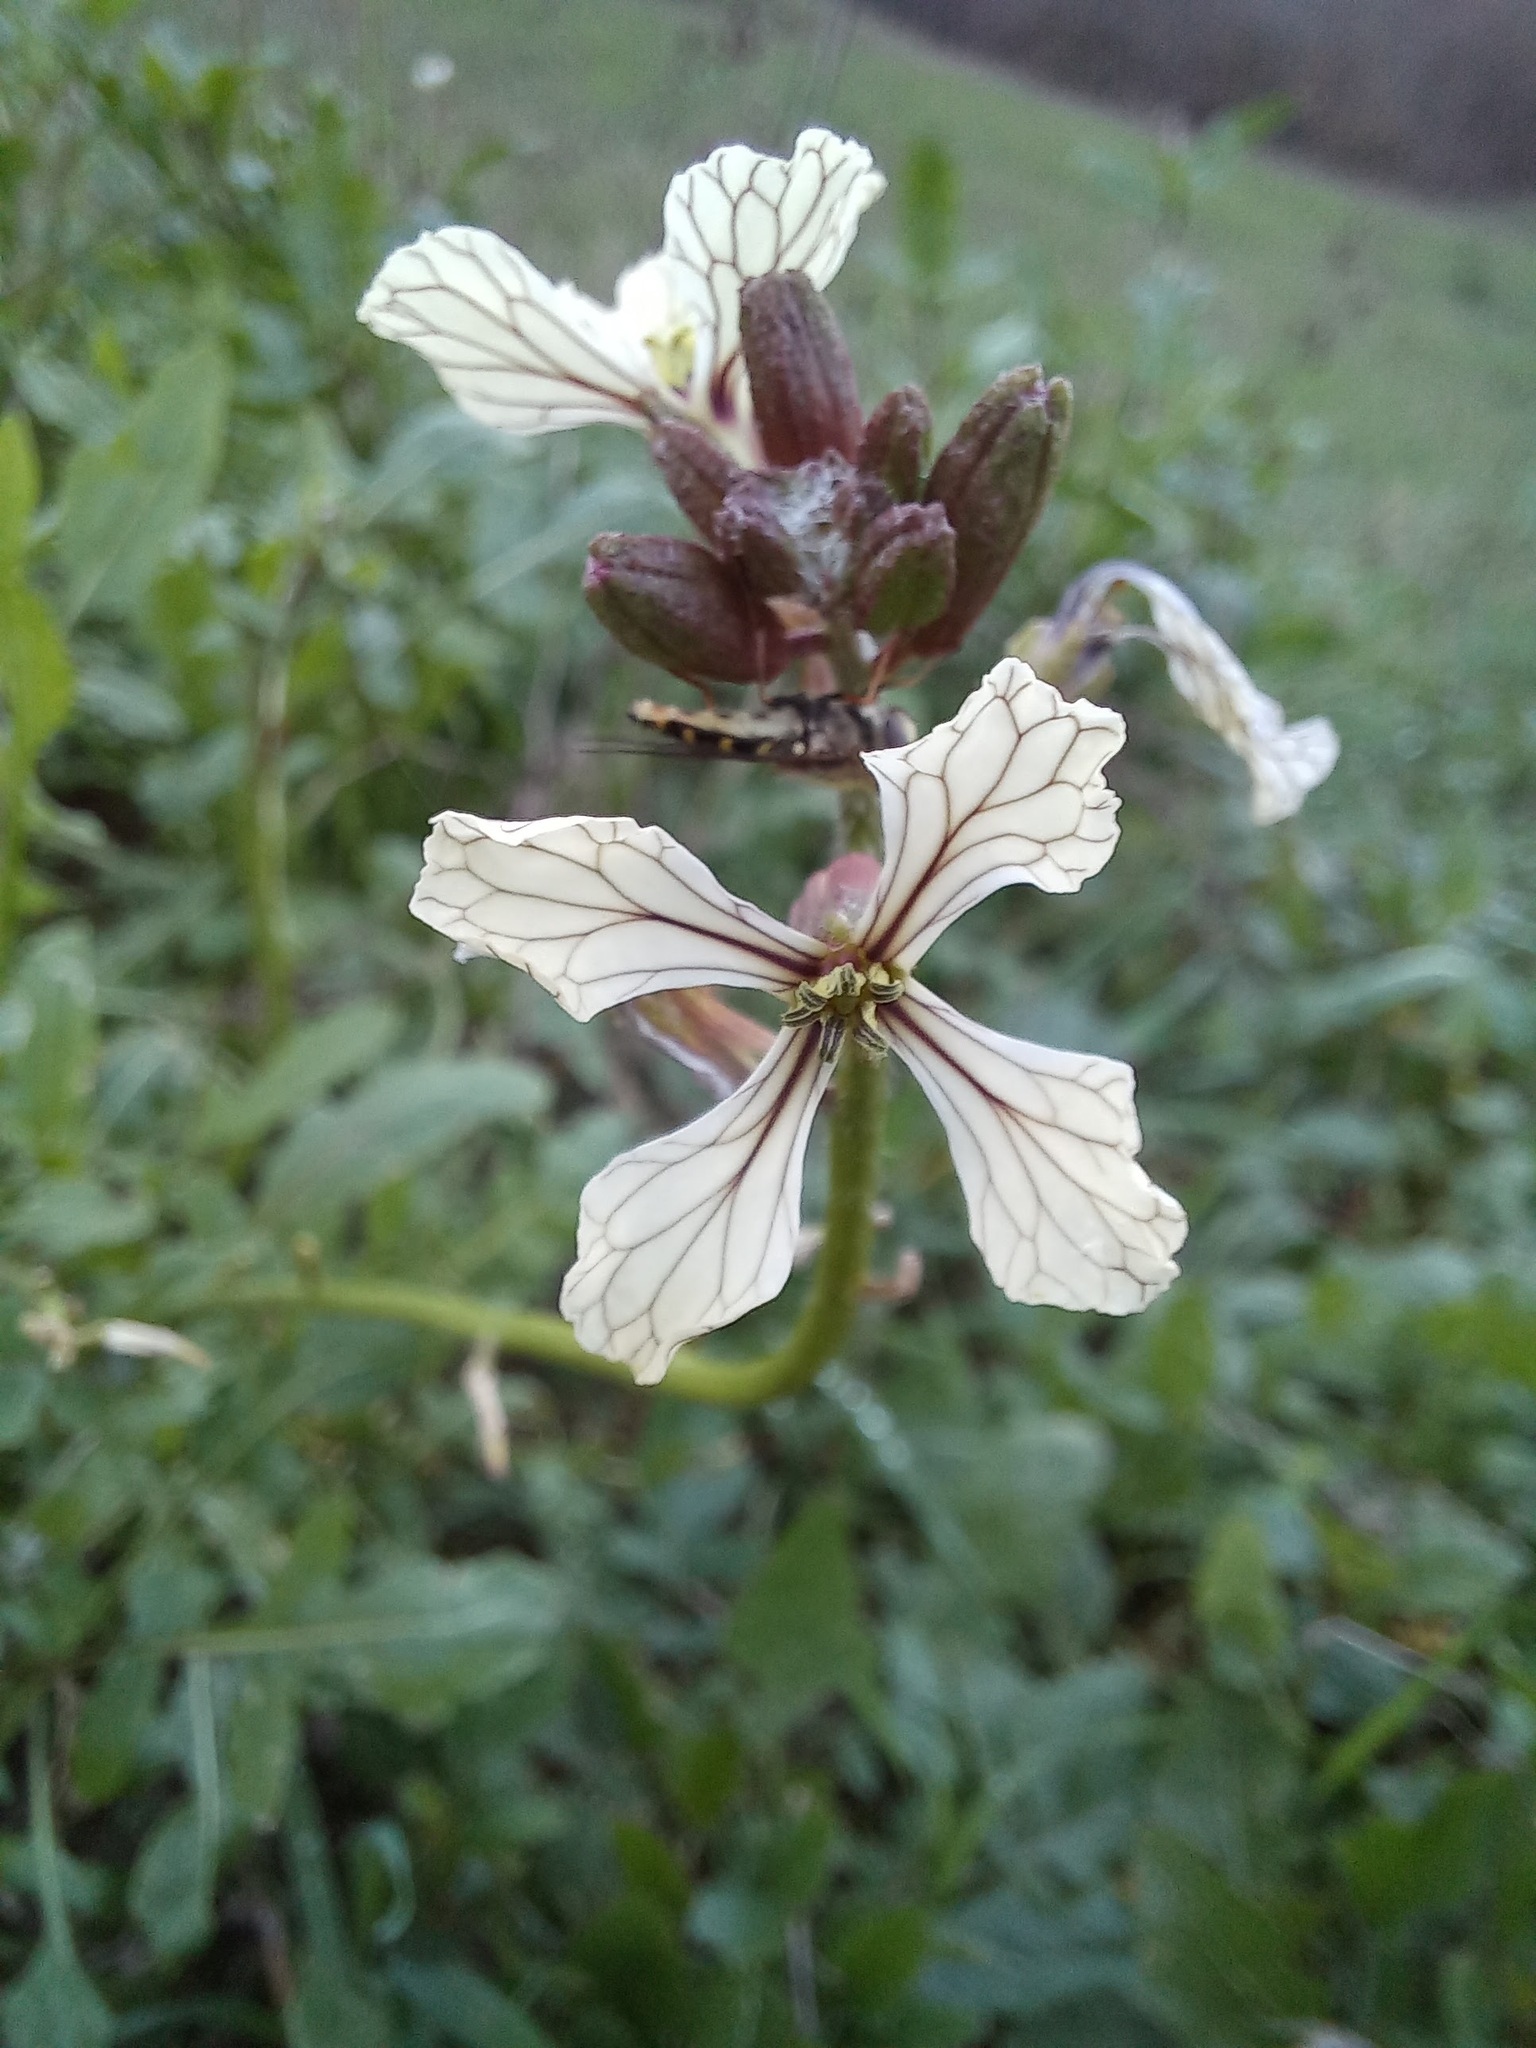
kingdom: Plantae
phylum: Tracheophyta
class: Magnoliopsida
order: Brassicales
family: Brassicaceae
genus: Eruca
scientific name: Eruca vesicaria
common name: Garden rocket
